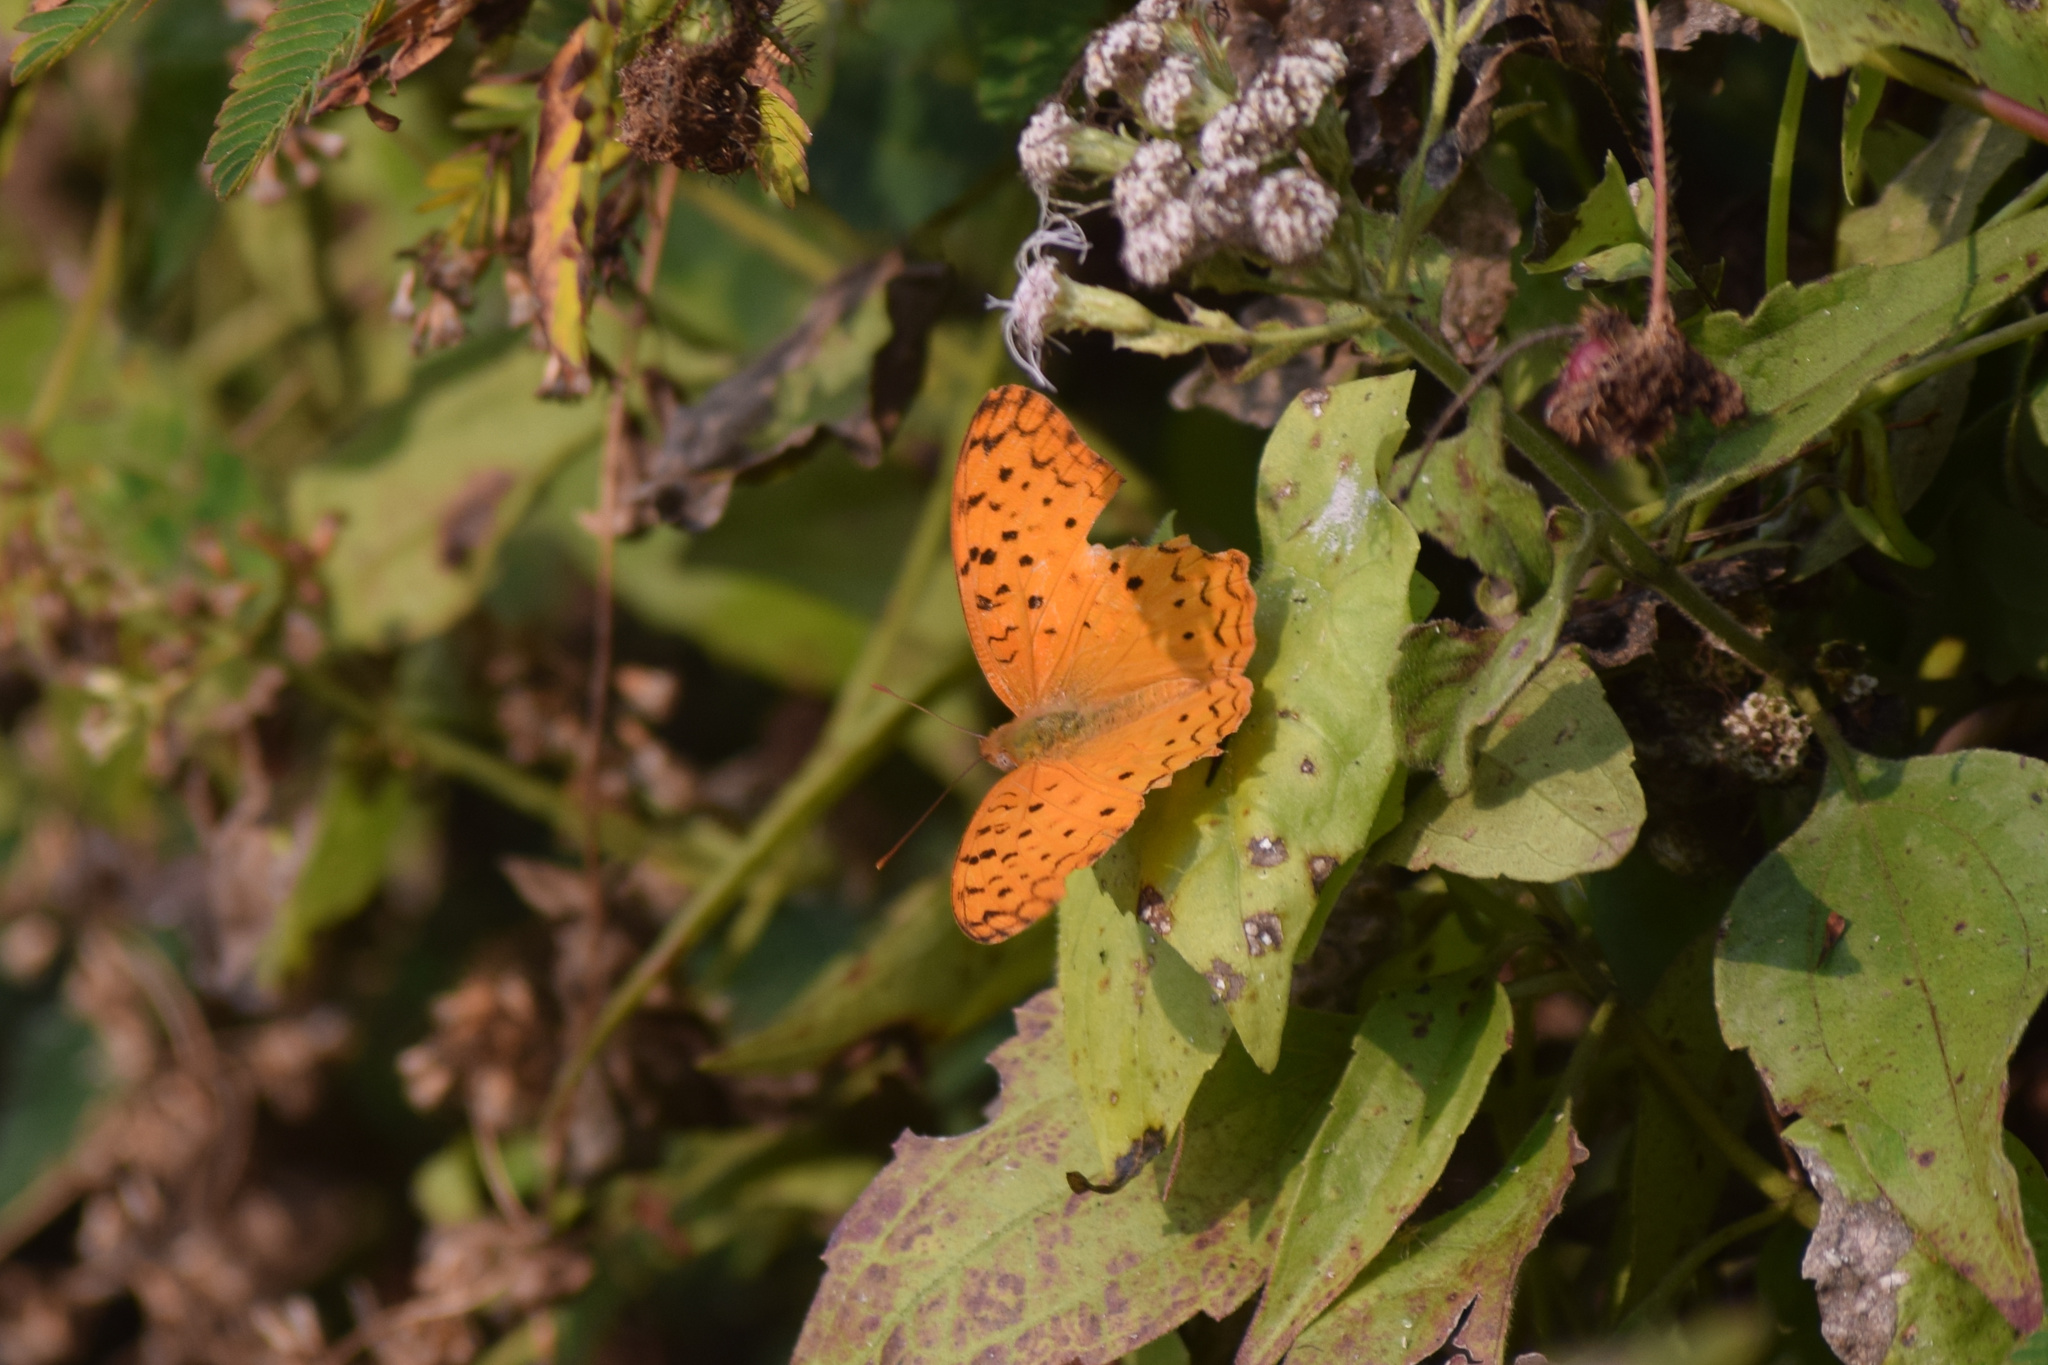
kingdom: Animalia
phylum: Arthropoda
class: Insecta
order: Lepidoptera
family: Nymphalidae
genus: Phalanta
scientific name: Phalanta phalantha
